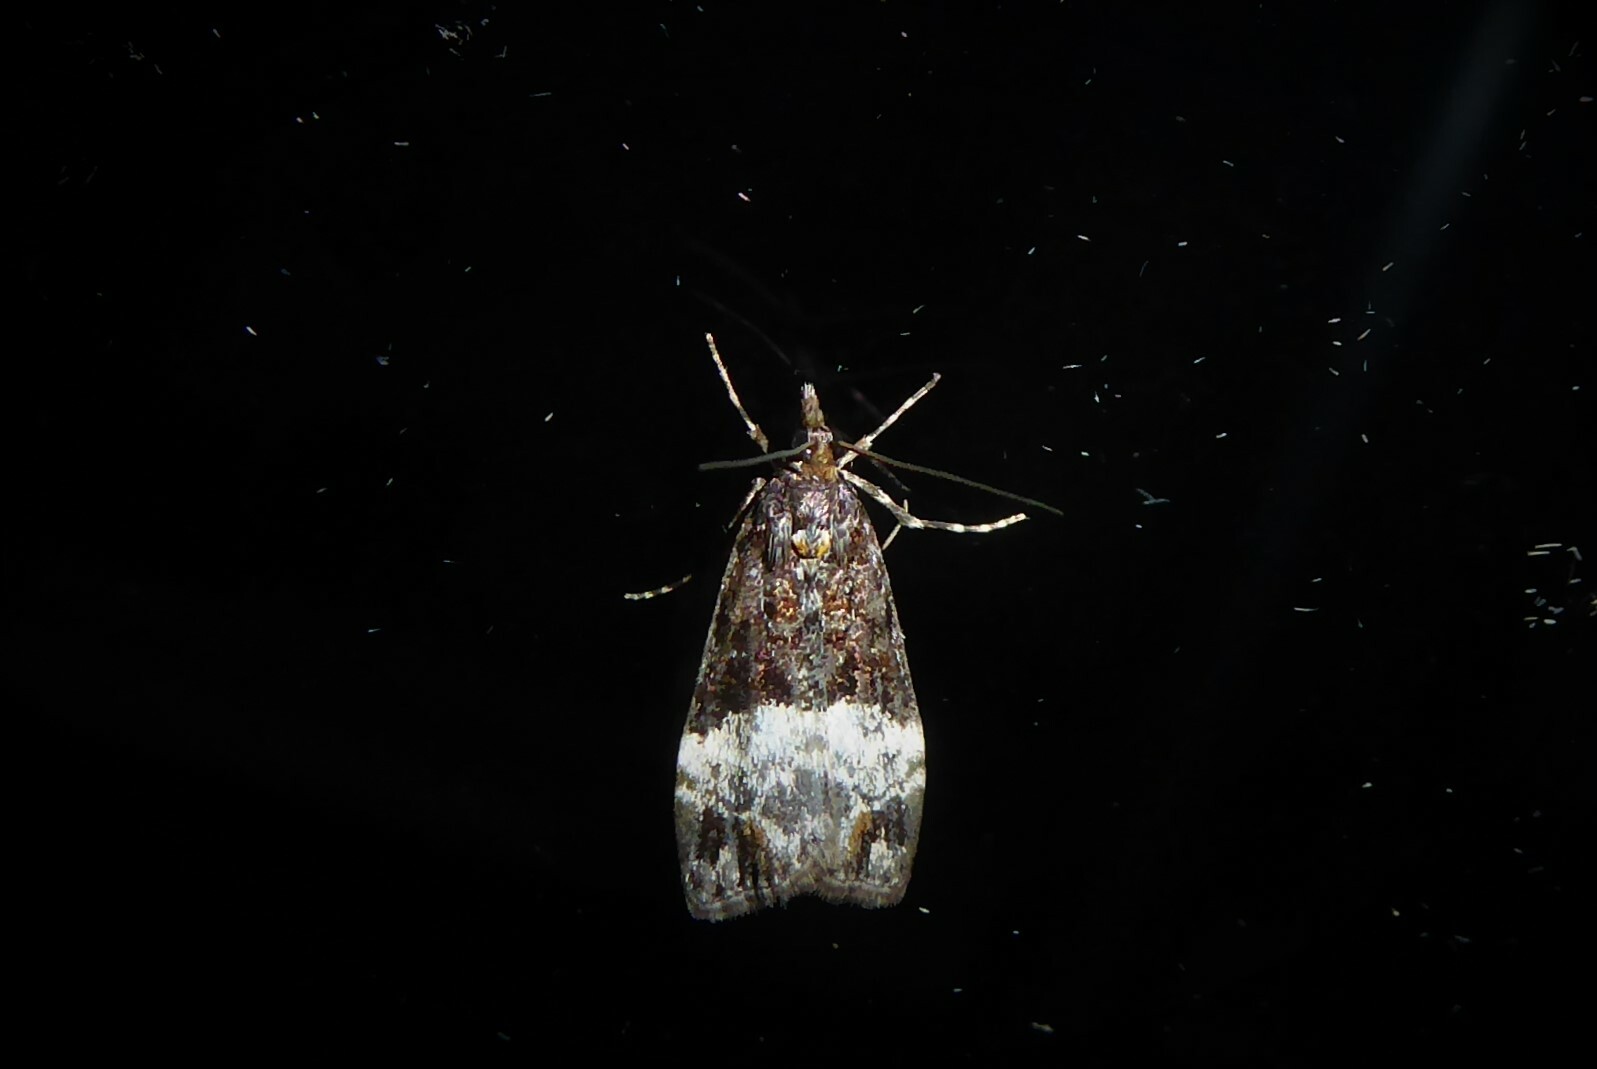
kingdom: Animalia
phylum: Arthropoda
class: Insecta
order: Lepidoptera
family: Crambidae
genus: Scoparia
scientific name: Scoparia minusculalis
